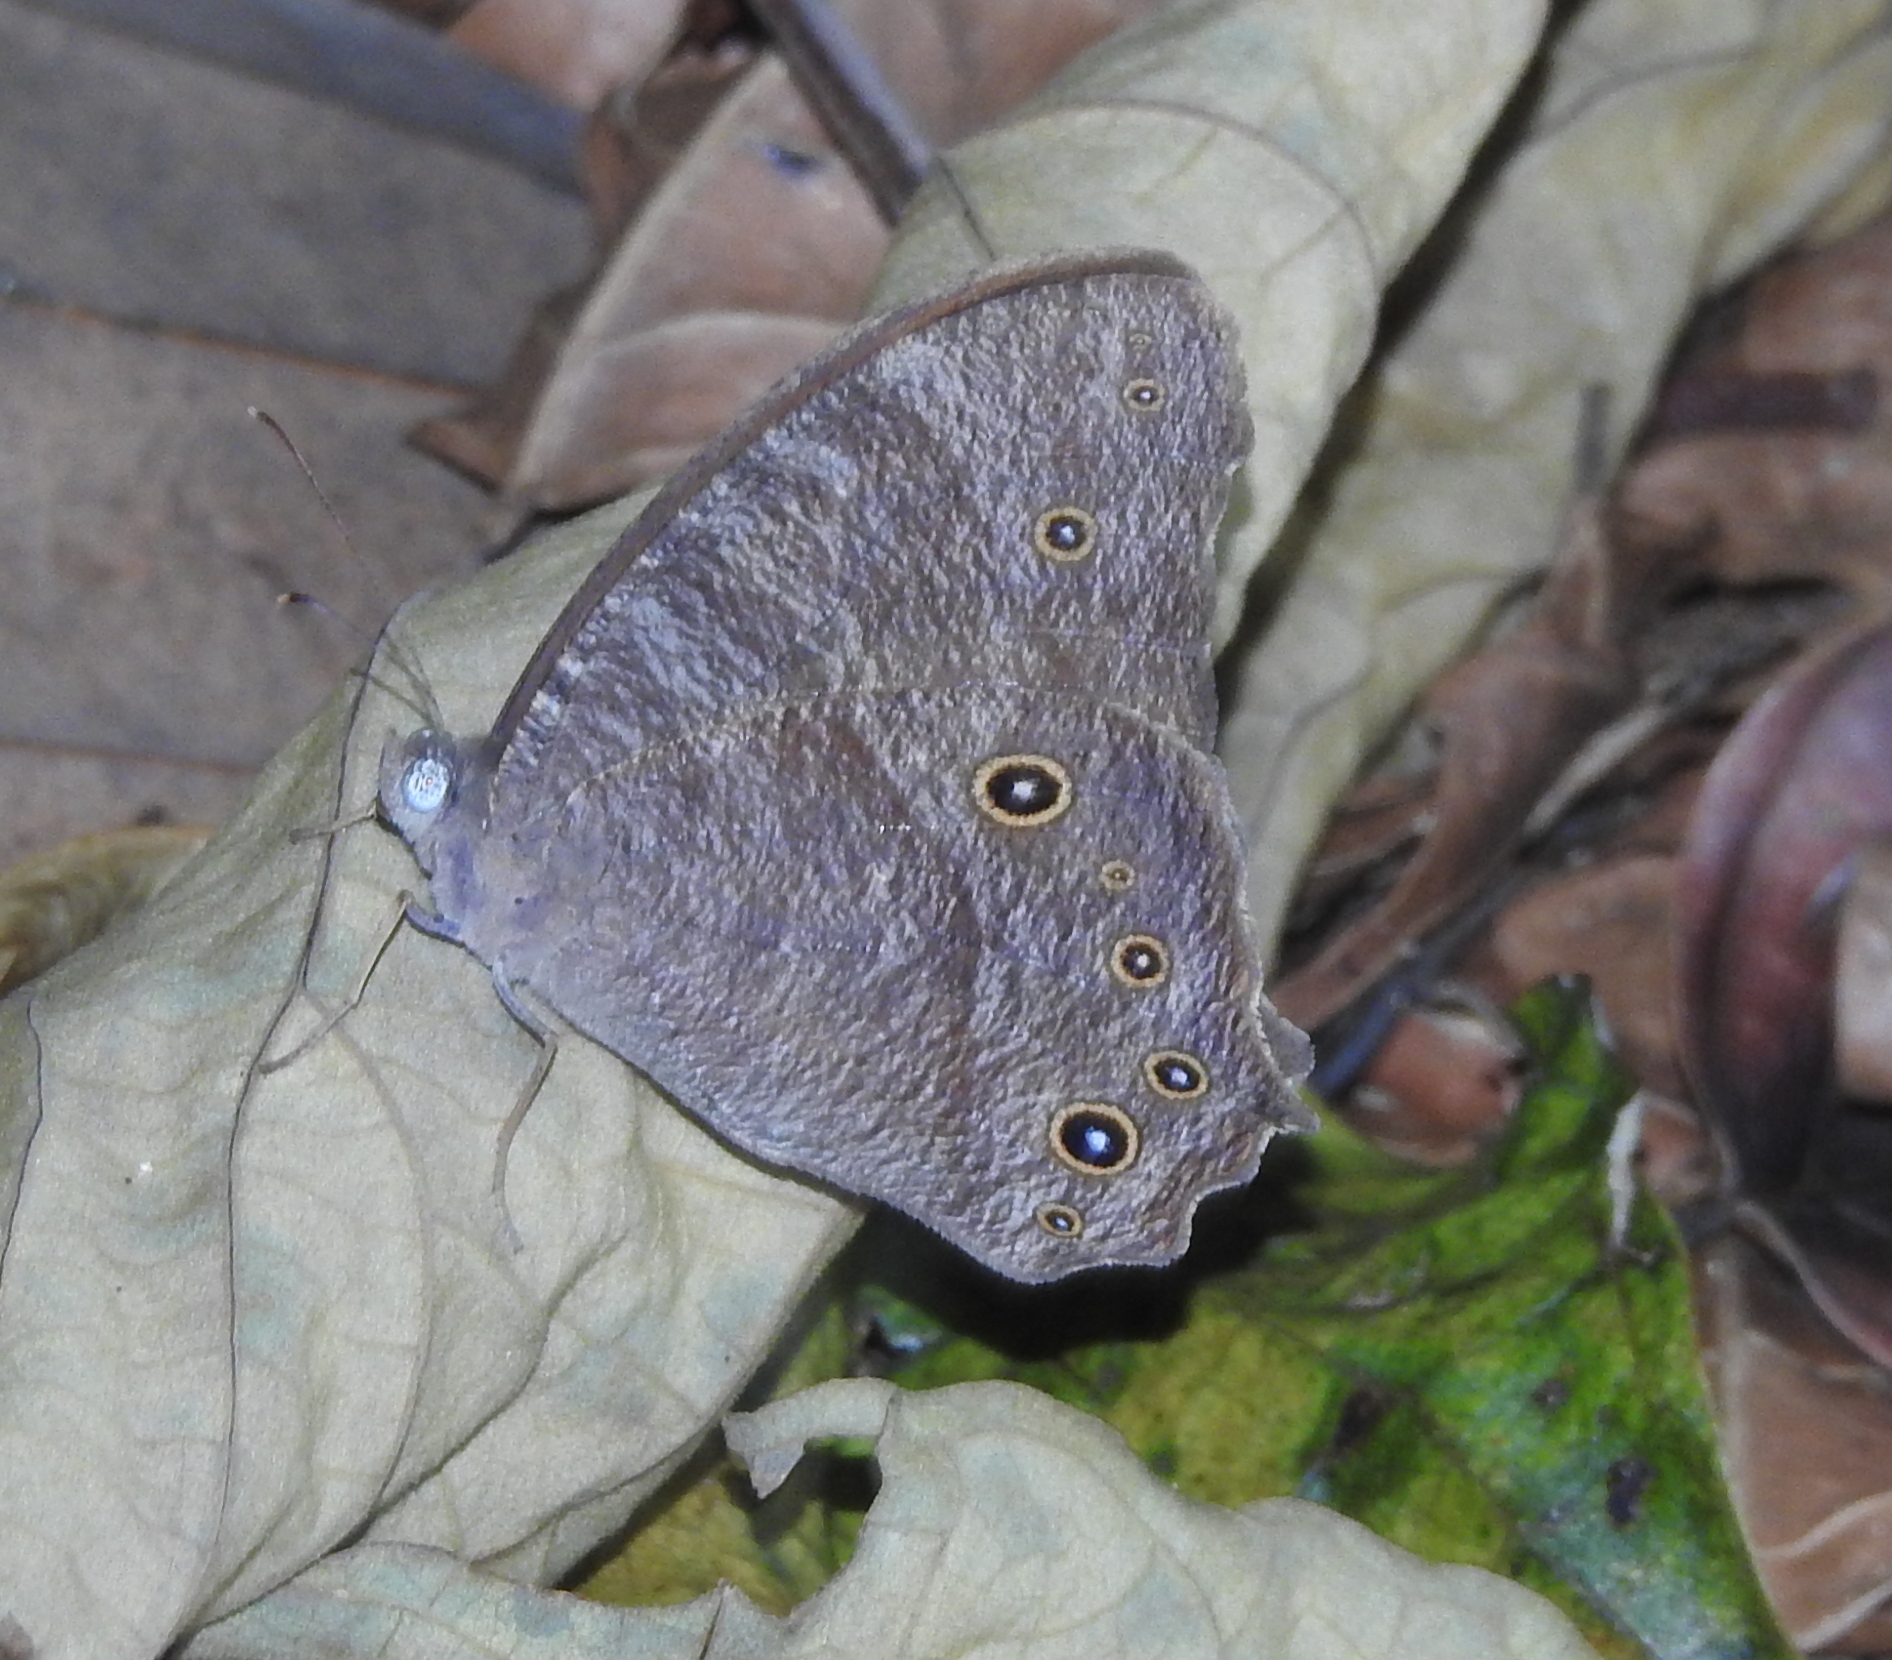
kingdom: Animalia
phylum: Arthropoda
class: Insecta
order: Lepidoptera
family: Nymphalidae
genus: Melanitis
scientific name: Melanitis leda
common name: Twilight brown
